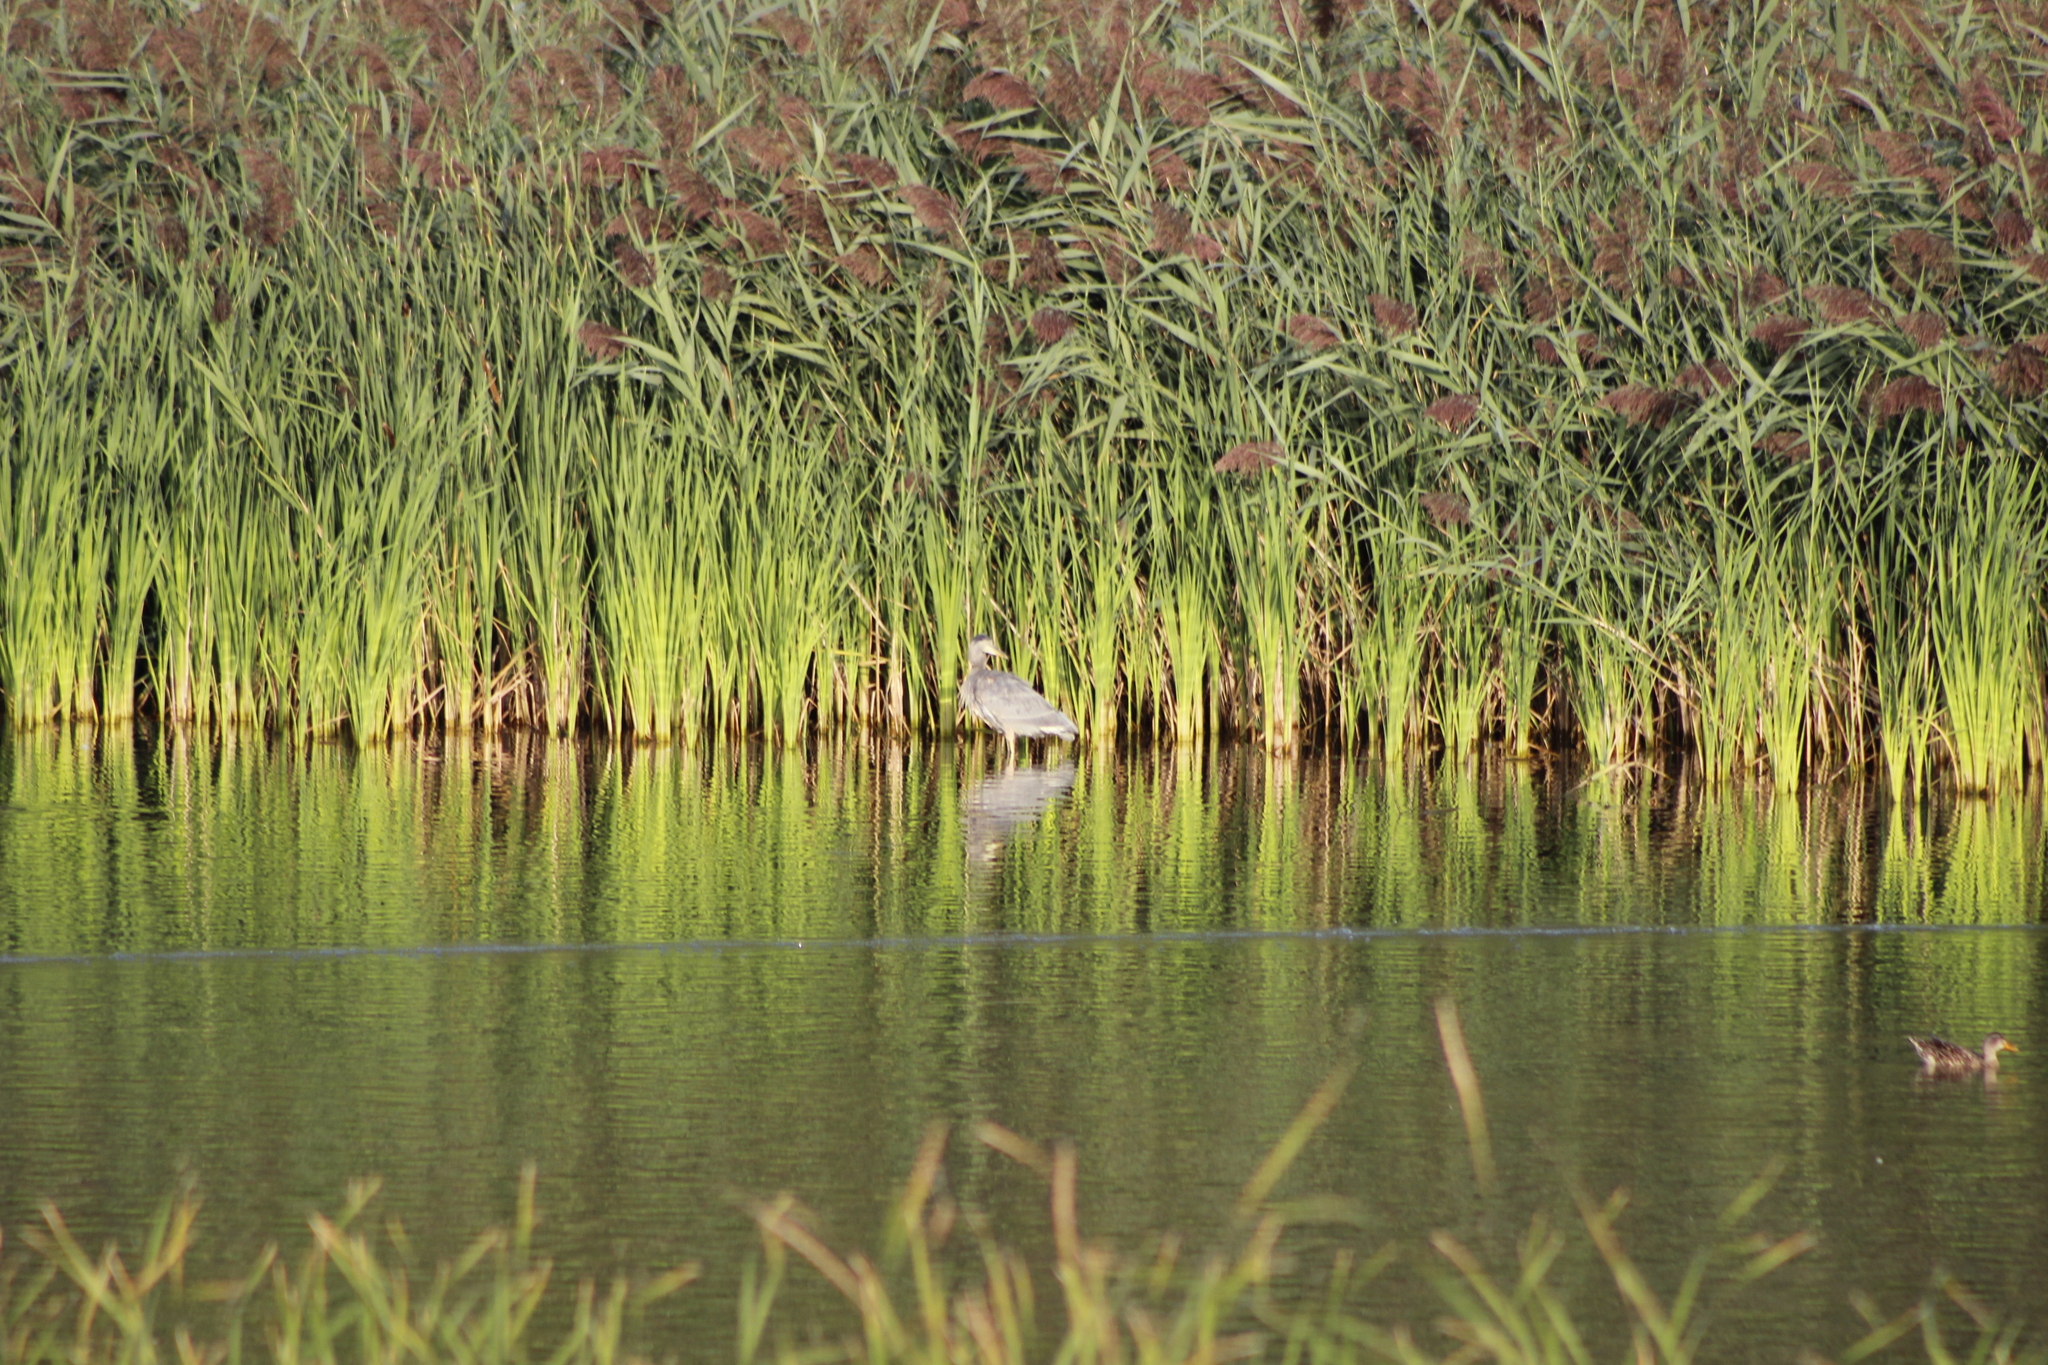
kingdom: Animalia
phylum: Chordata
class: Aves
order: Pelecaniformes
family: Ardeidae
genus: Ardea
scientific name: Ardea herodias
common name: Great blue heron
